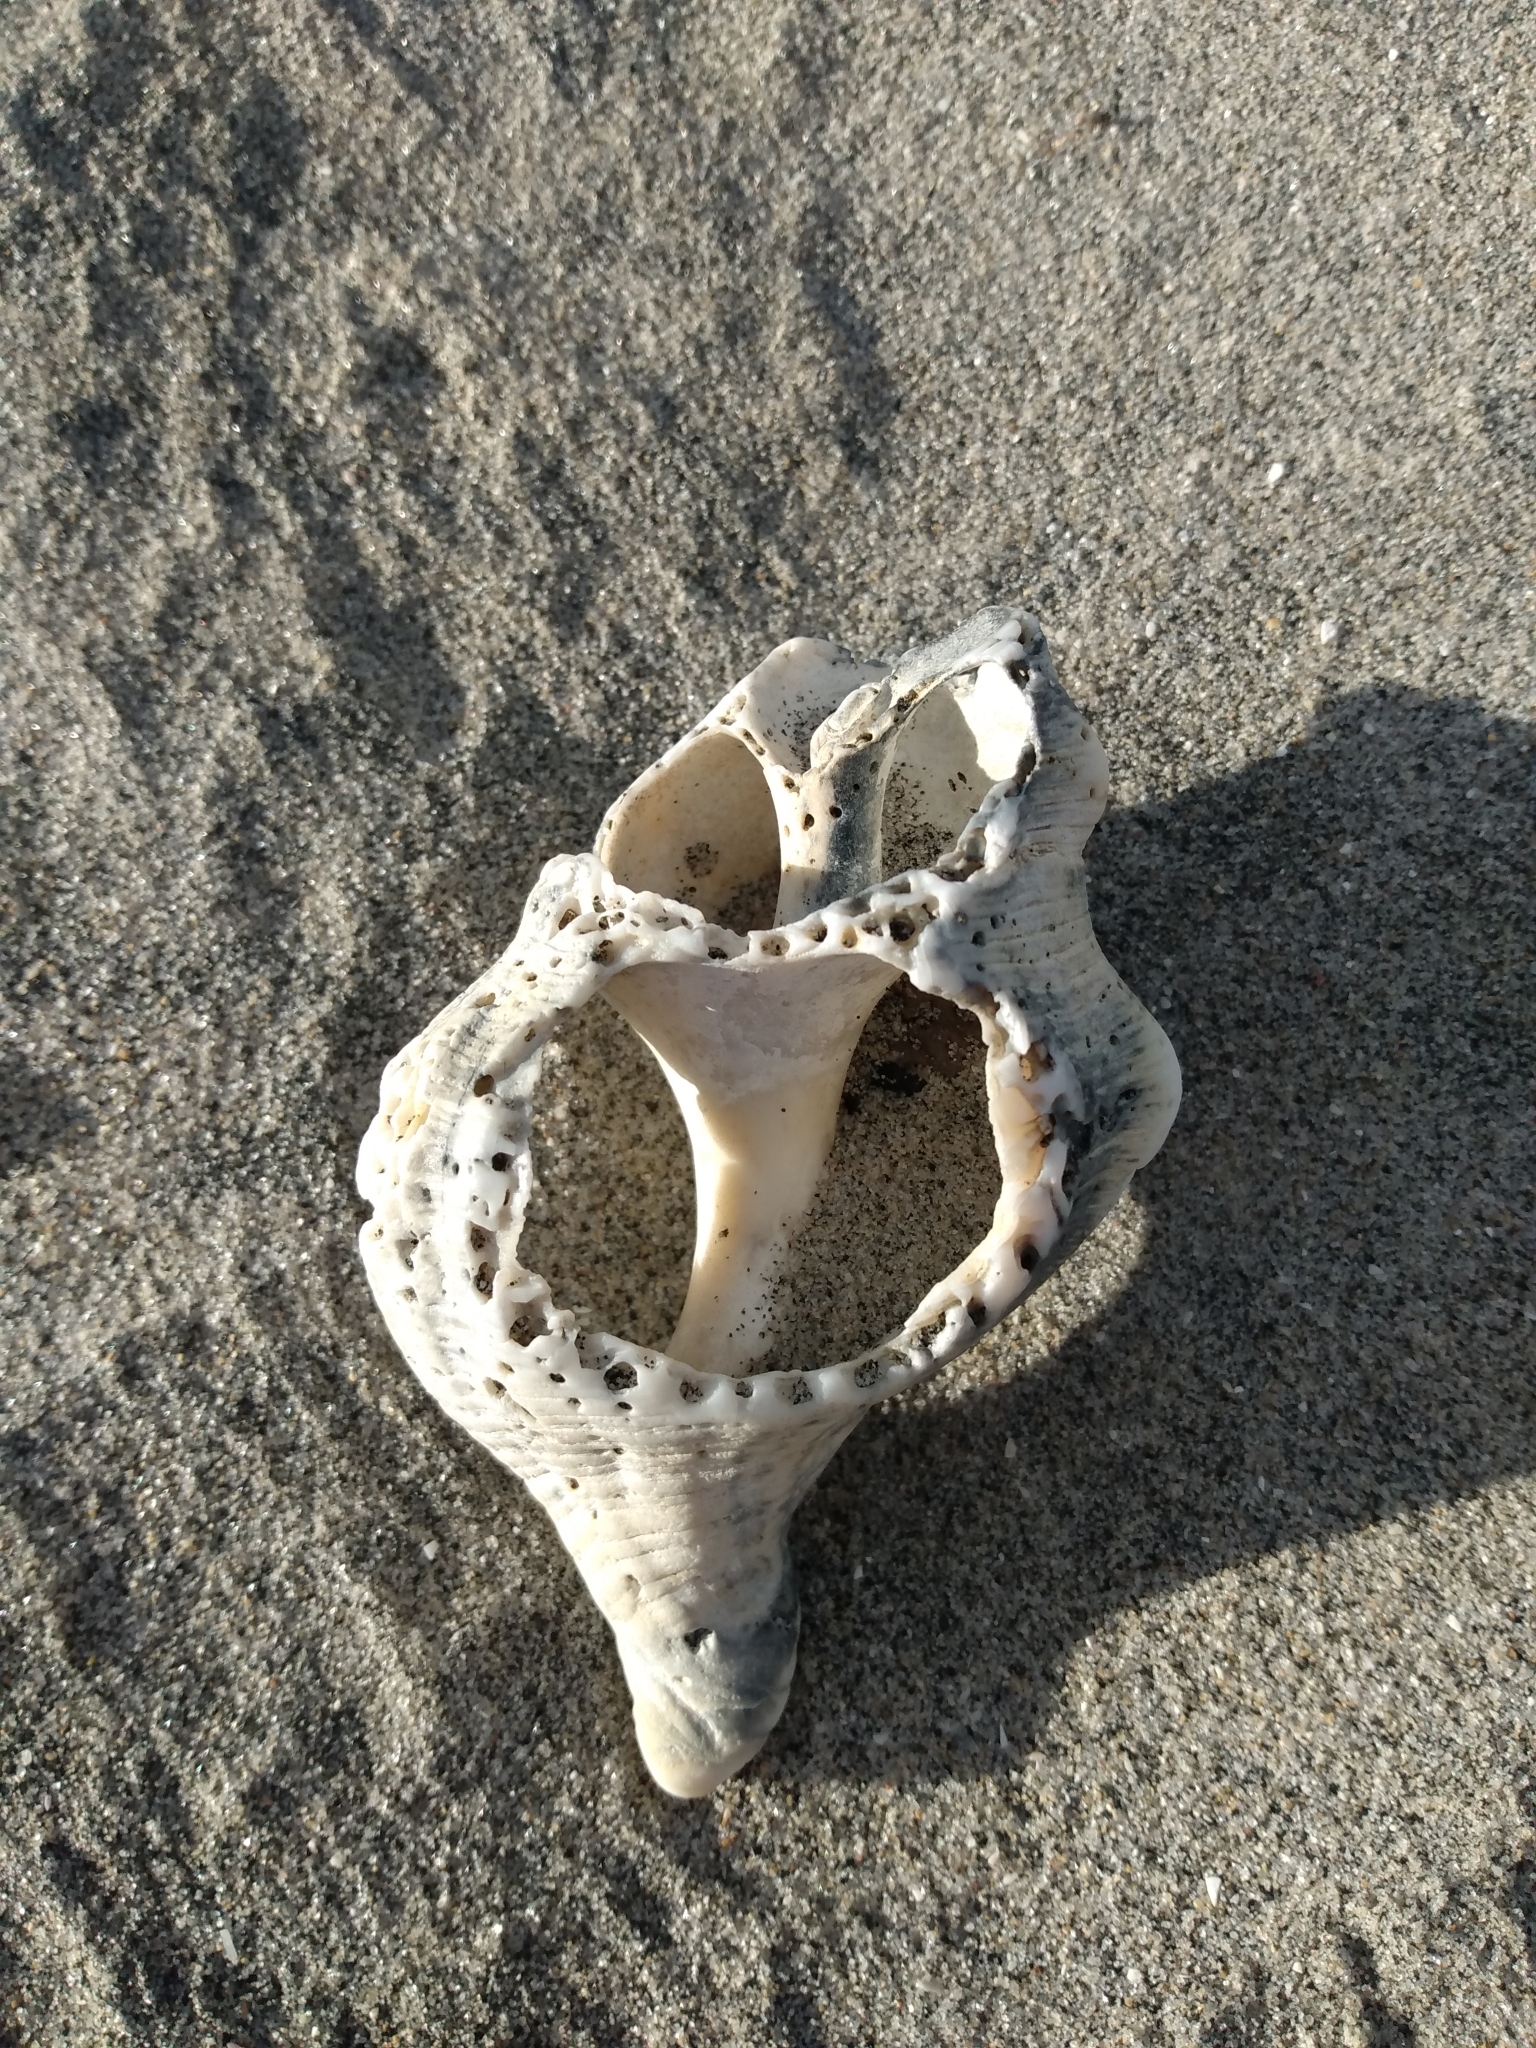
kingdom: Animalia
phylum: Mollusca
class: Gastropoda
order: Neogastropoda
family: Austrosiphonidae
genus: Kelletia
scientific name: Kelletia kelletii
